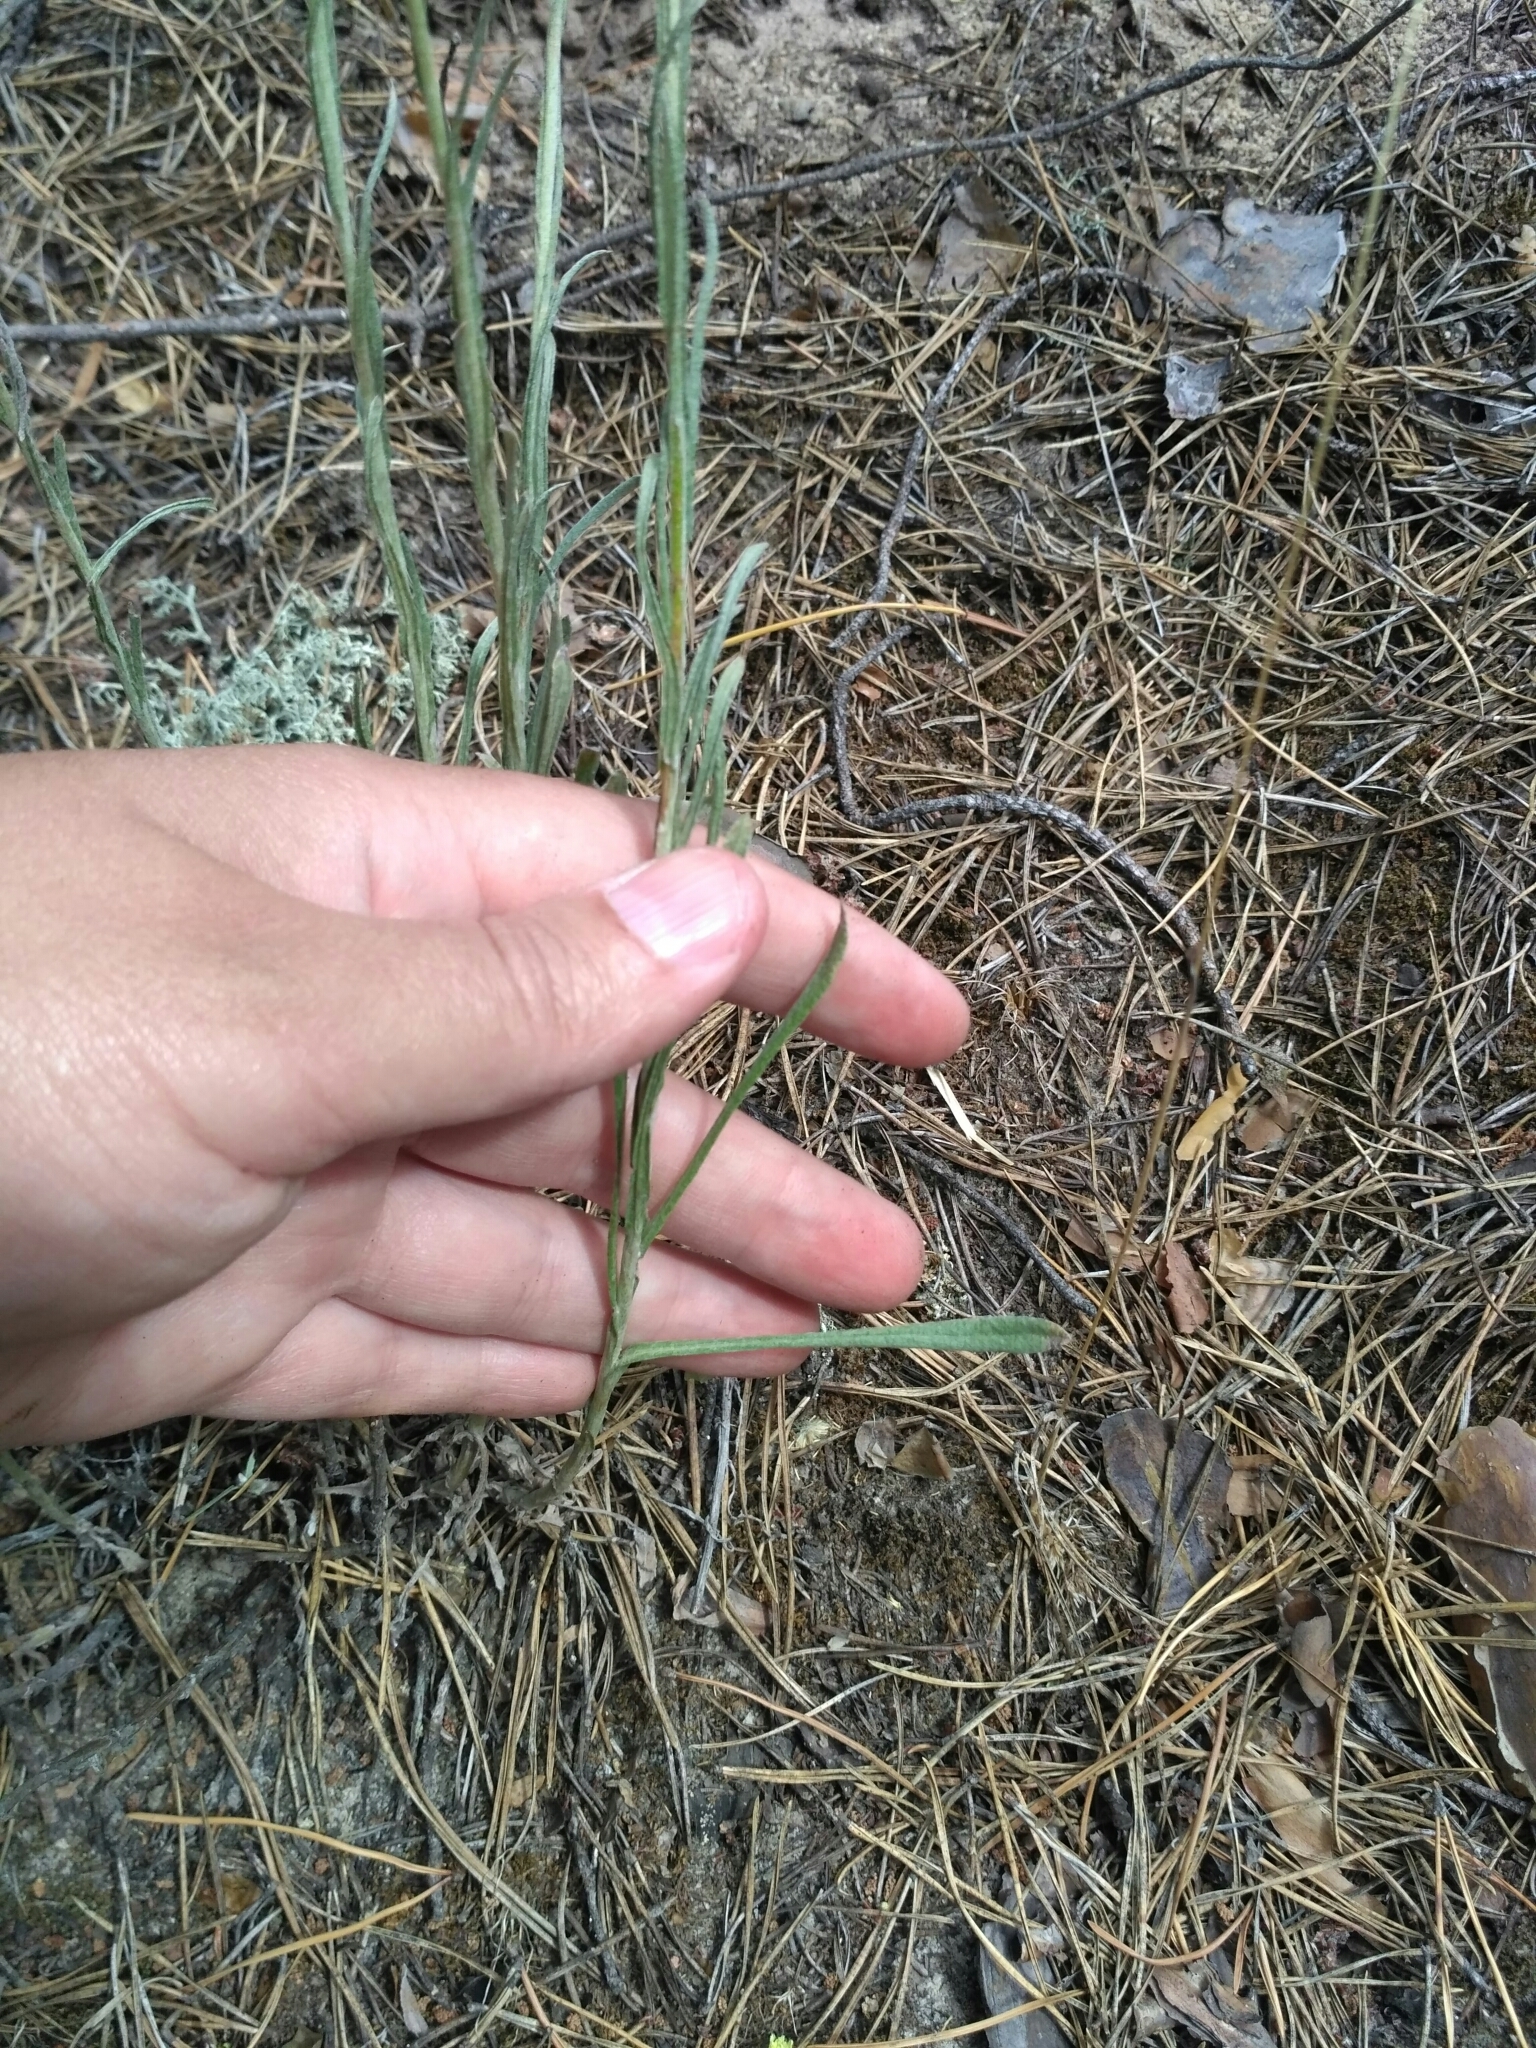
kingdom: Plantae
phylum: Tracheophyta
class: Magnoliopsida
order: Asterales
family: Asteraceae
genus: Helichrysum
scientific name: Helichrysum arenarium
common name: Strawflower
